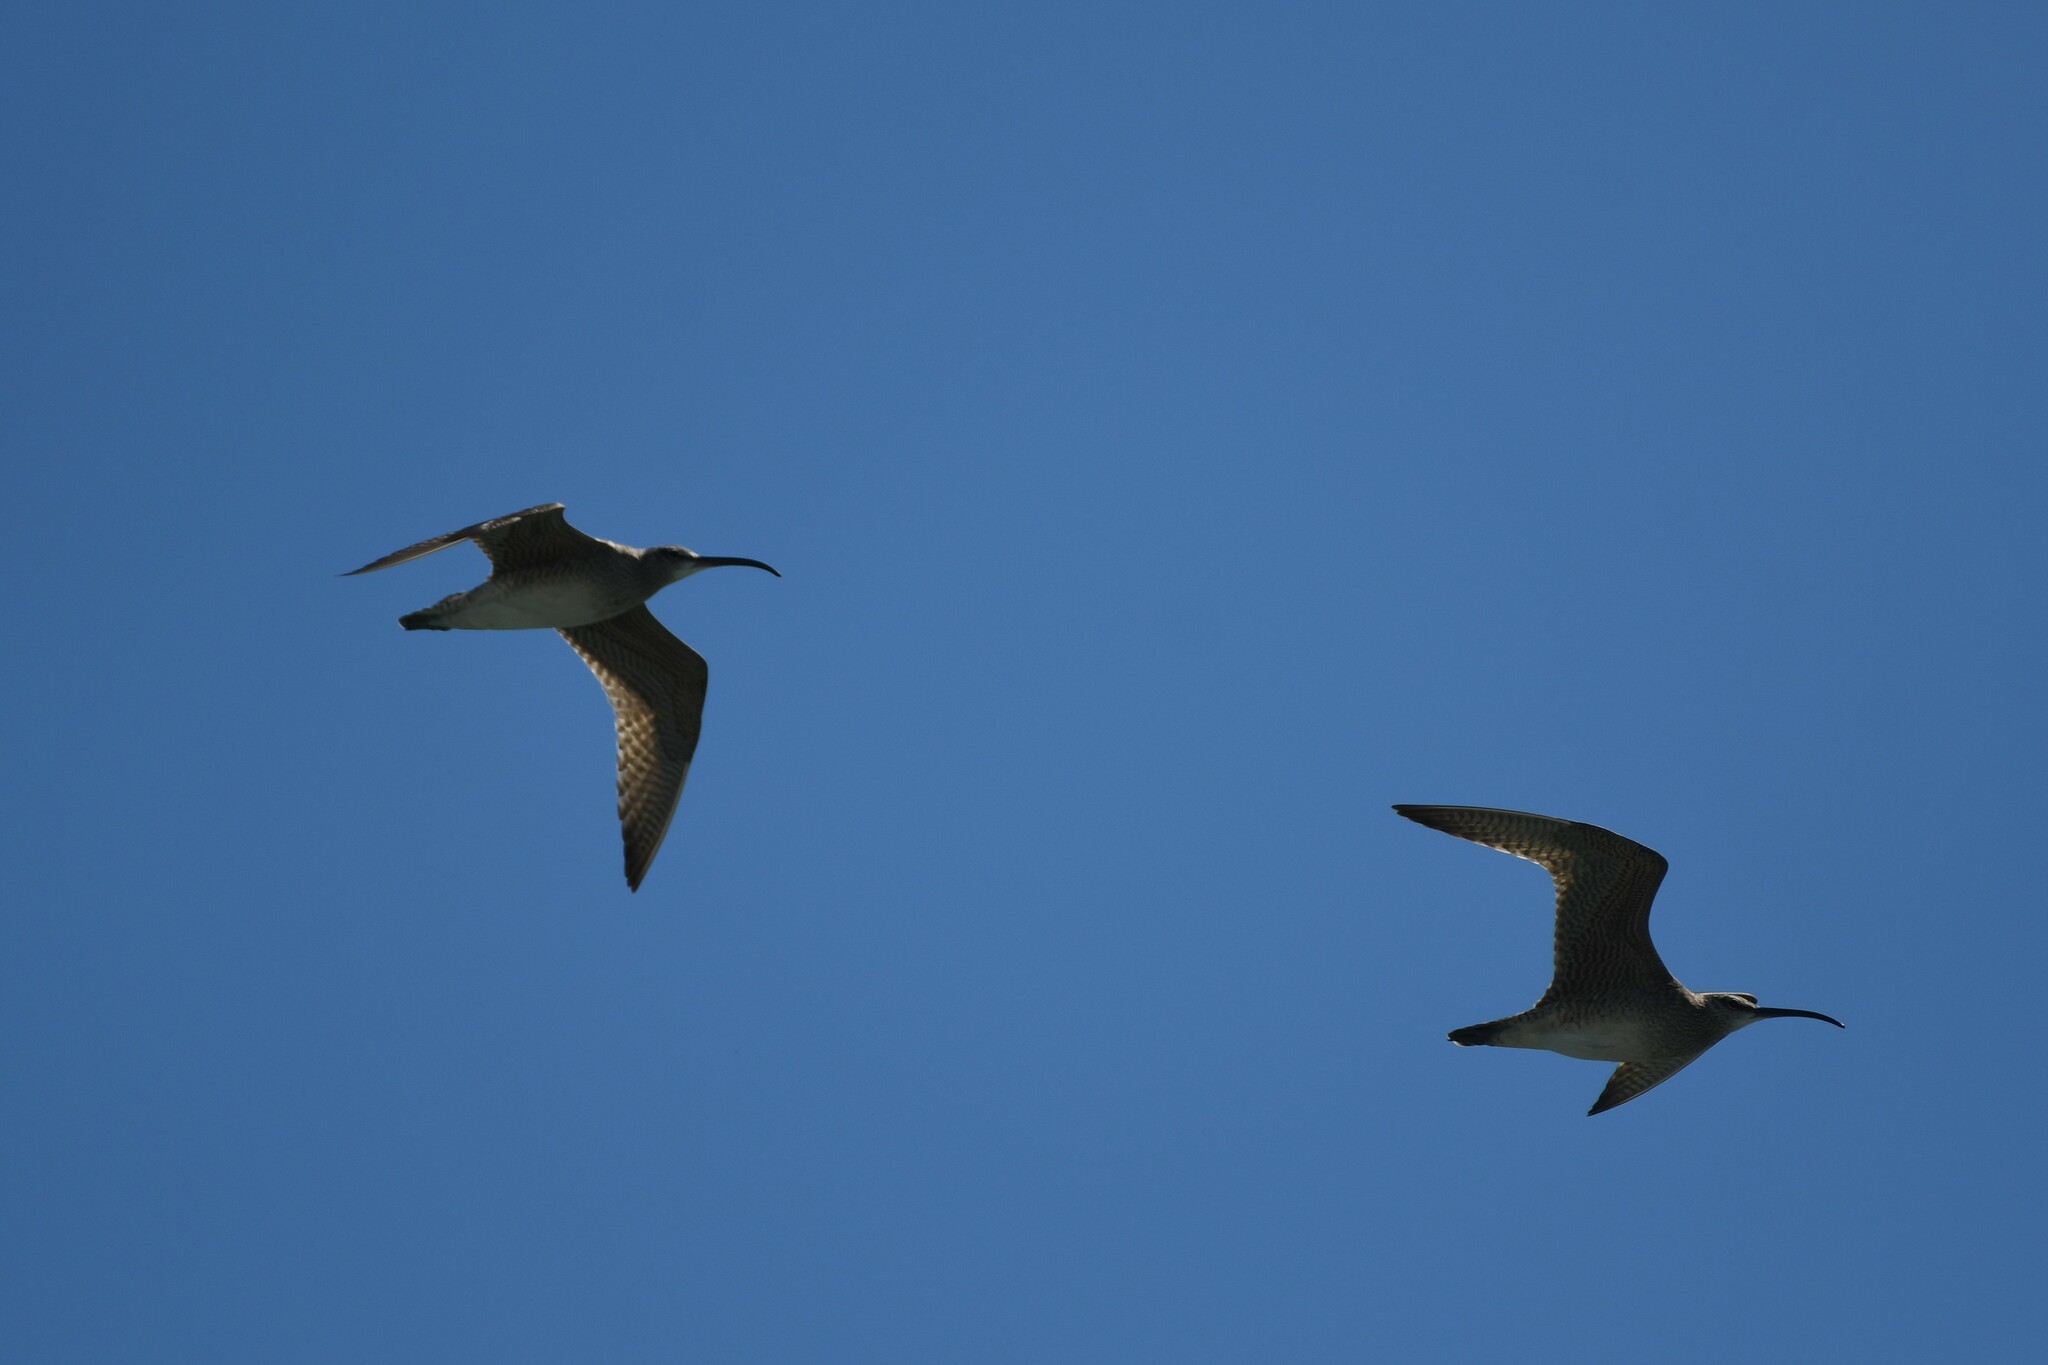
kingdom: Animalia
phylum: Chordata
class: Aves
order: Charadriiformes
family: Scolopacidae
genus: Numenius
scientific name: Numenius phaeopus
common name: Whimbrel
